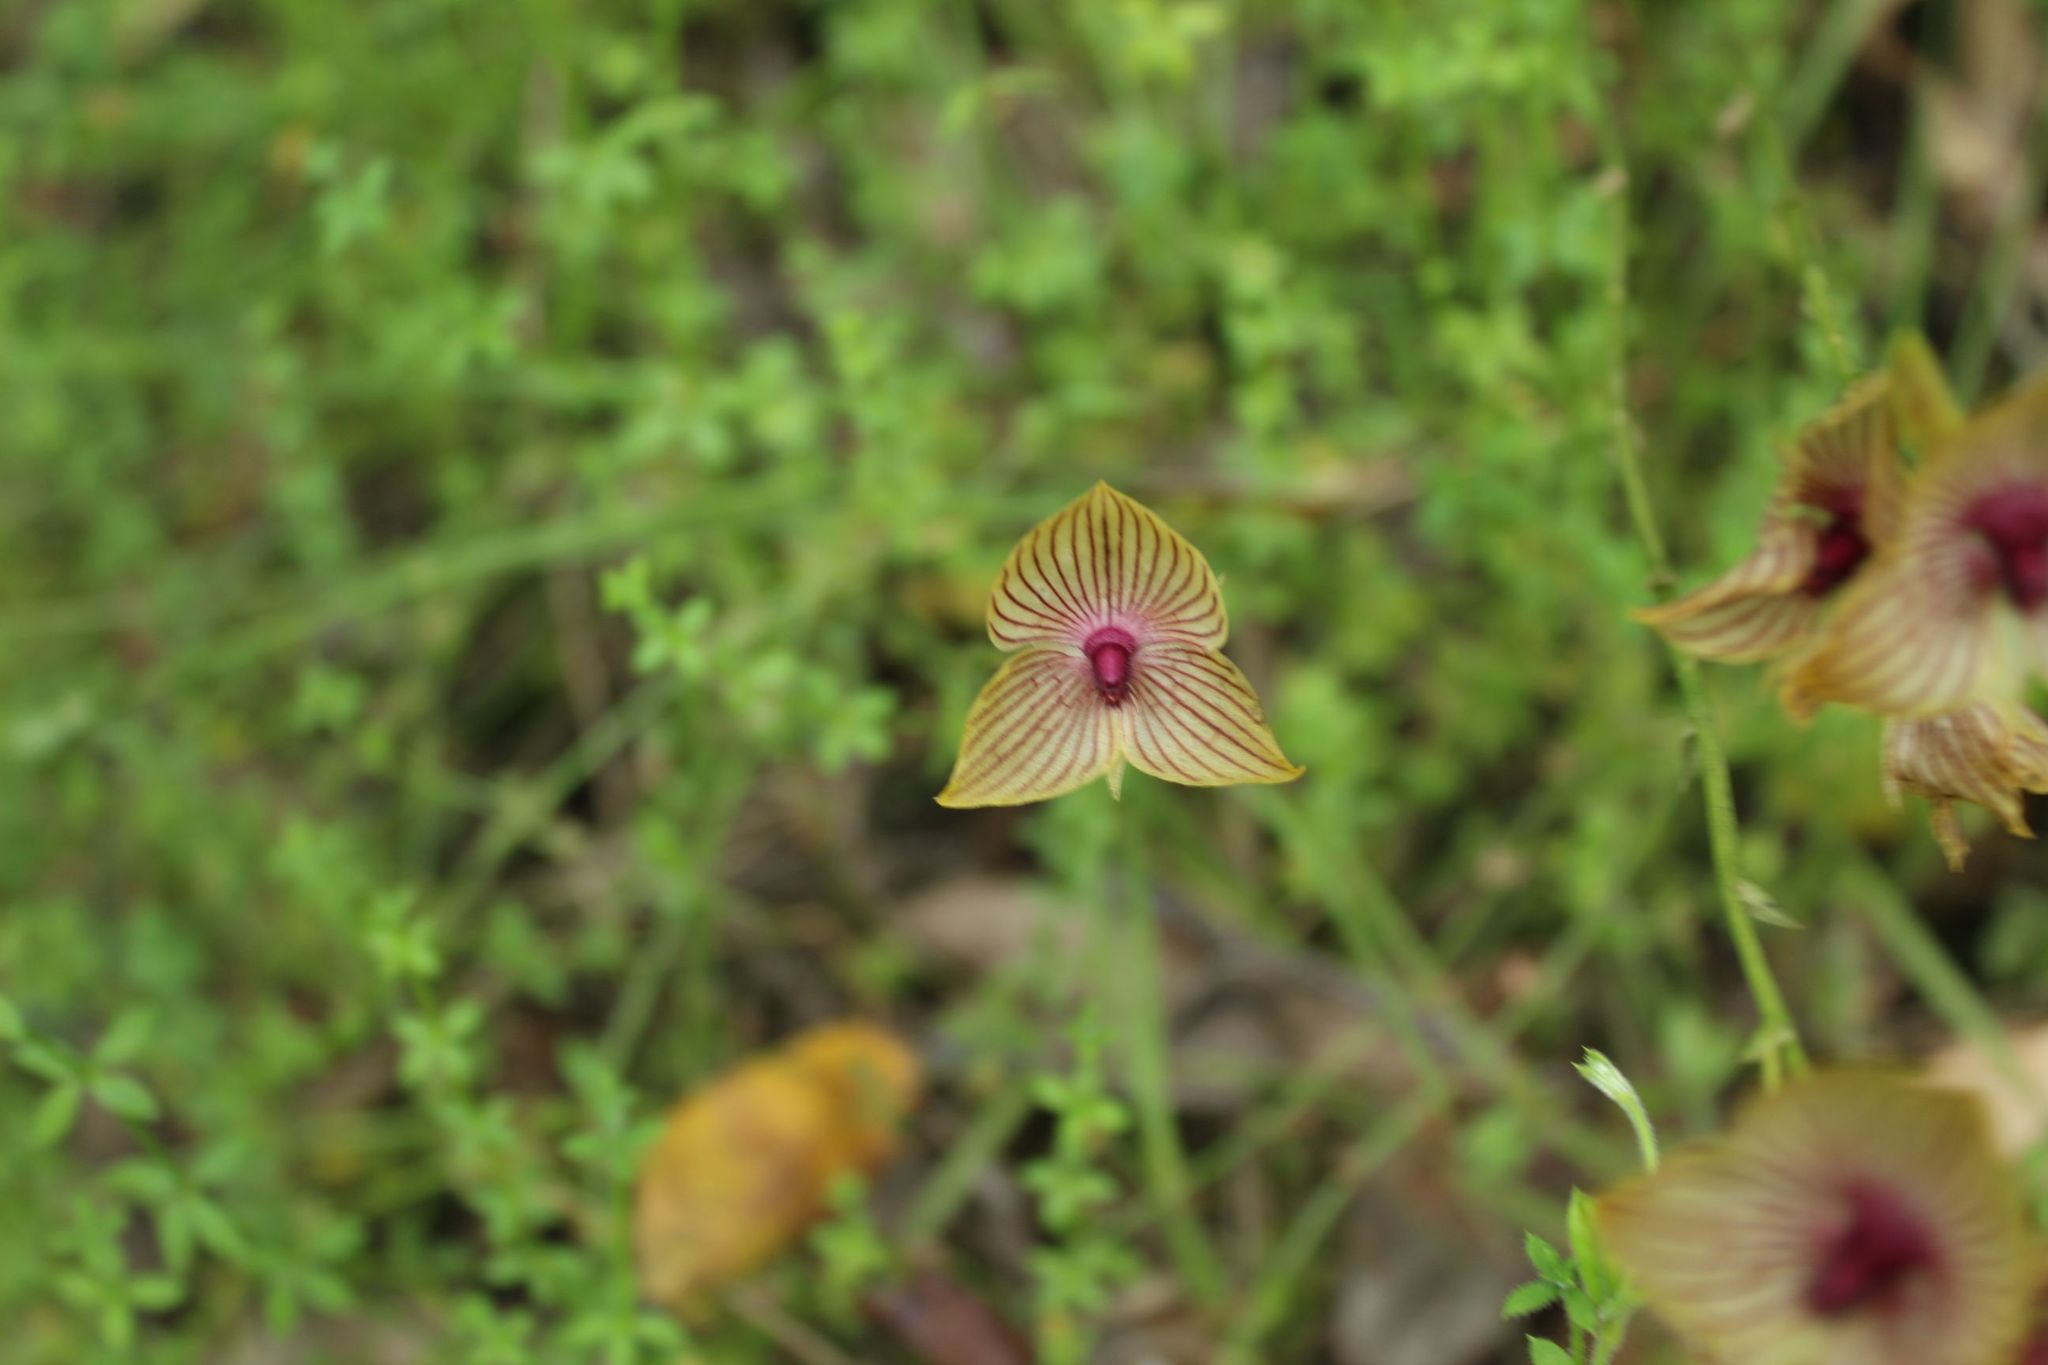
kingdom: Plantae
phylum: Tracheophyta
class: Liliopsida
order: Asparagales
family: Orchidaceae
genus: Telipogon
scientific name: Telipogon nervosus
